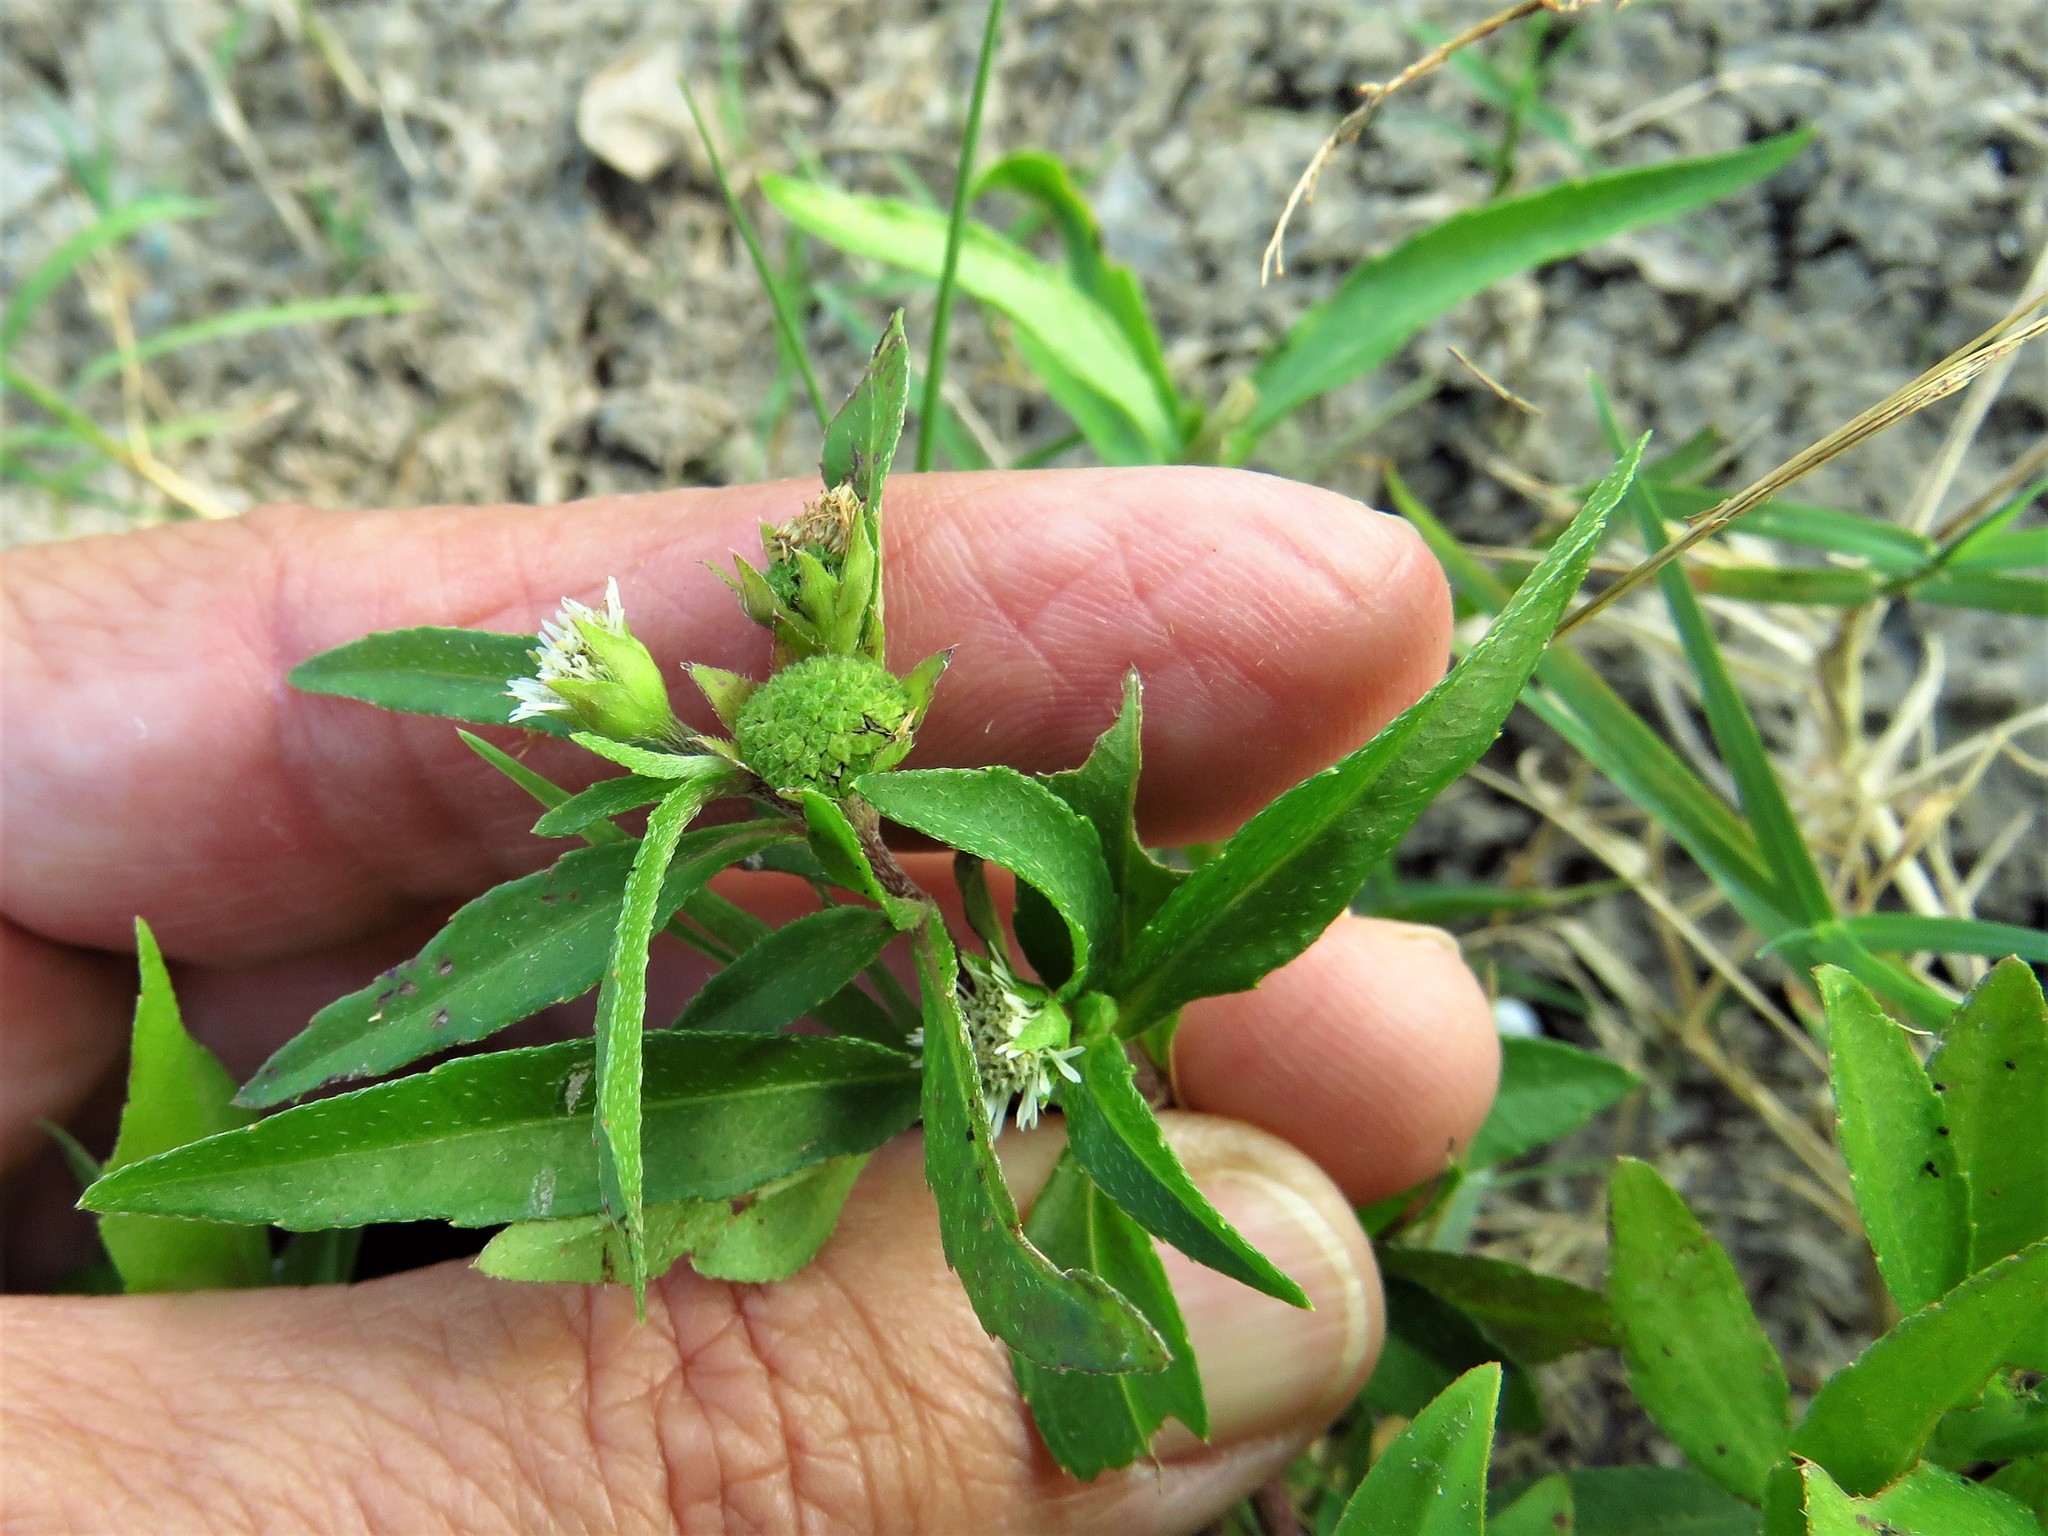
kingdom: Plantae
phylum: Tracheophyta
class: Magnoliopsida
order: Asterales
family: Asteraceae
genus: Eclipta
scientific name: Eclipta prostrata
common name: False daisy
